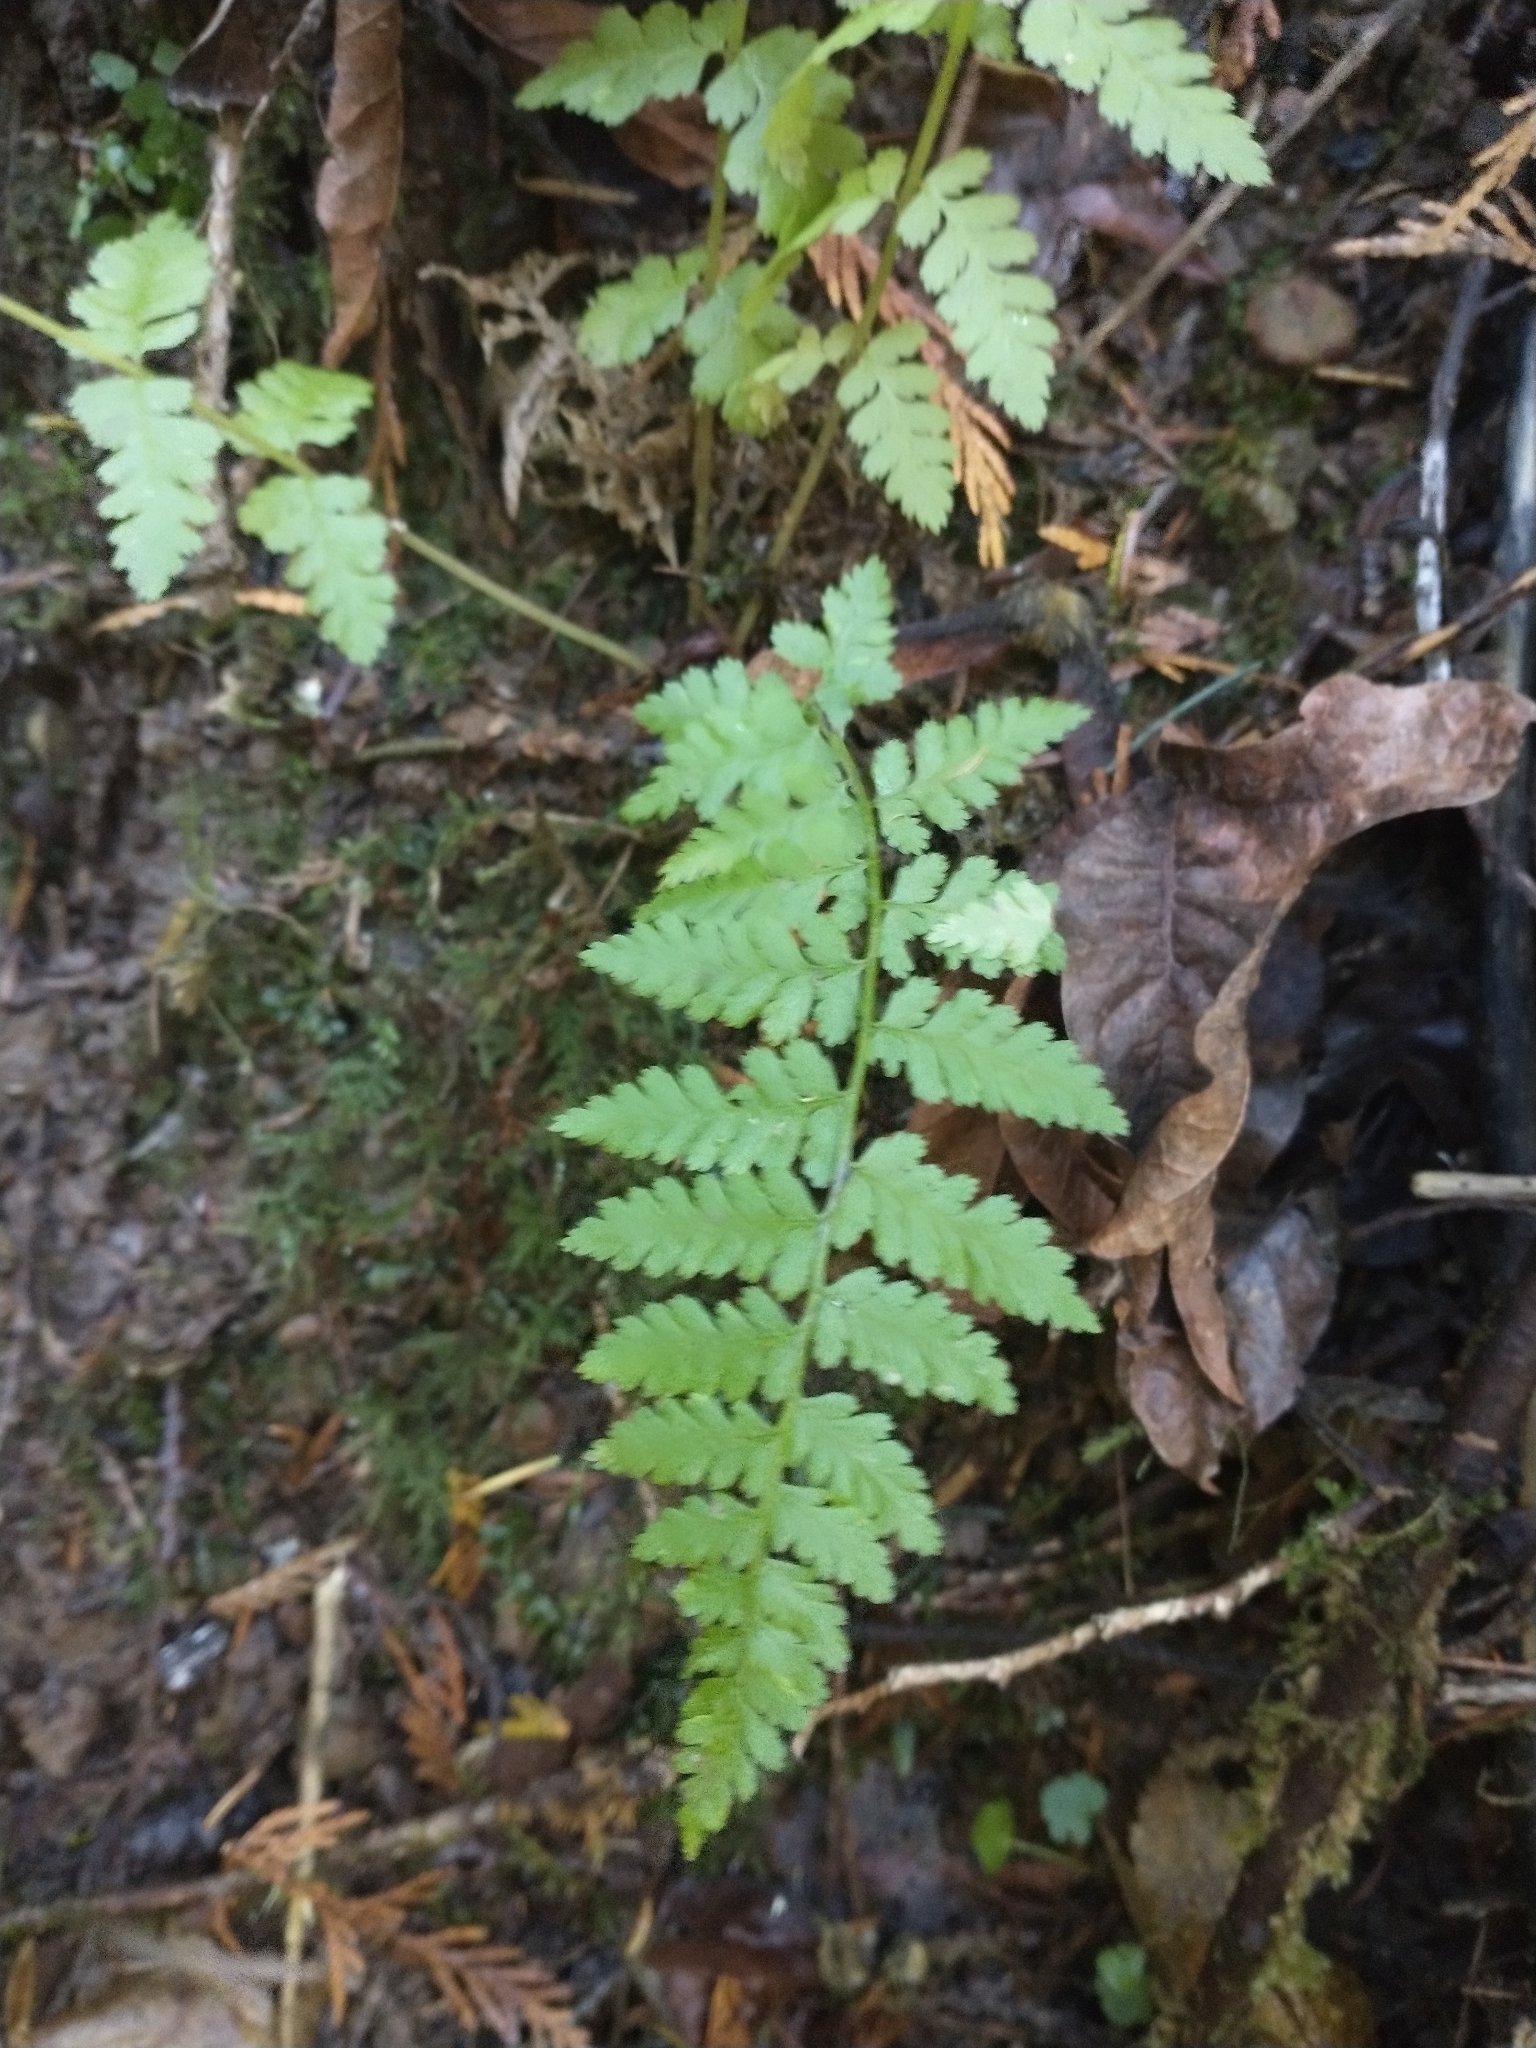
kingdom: Plantae
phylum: Tracheophyta
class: Polypodiopsida
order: Polypodiales
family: Athyriaceae
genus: Athyrium
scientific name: Athyrium cyclosorum
